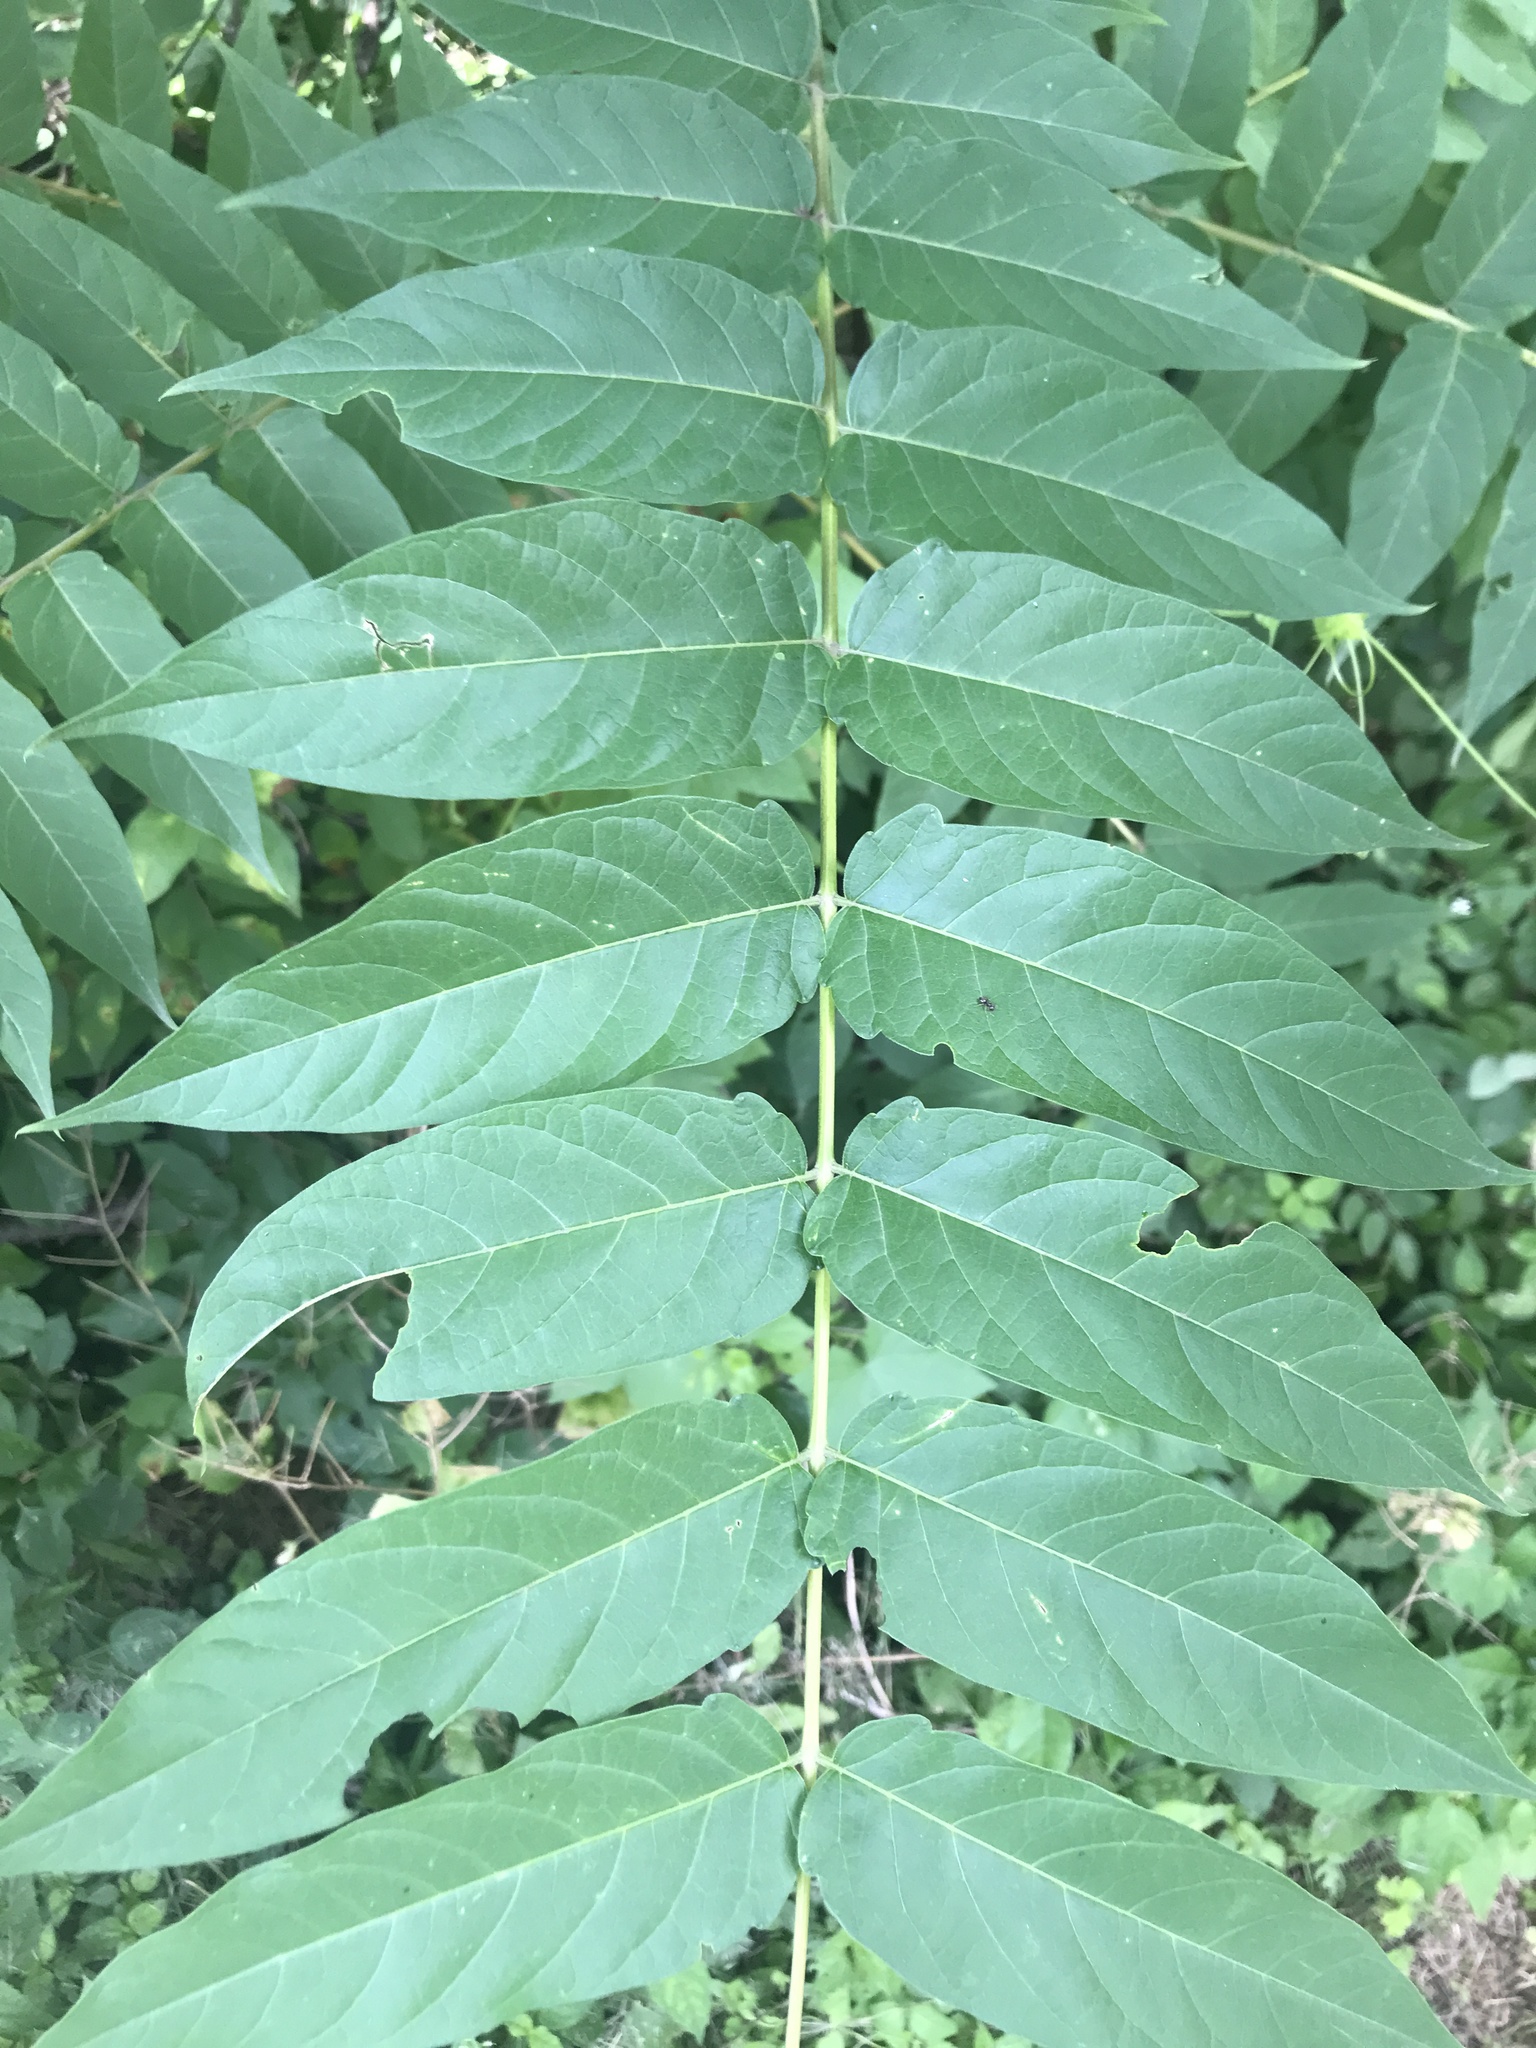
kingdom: Plantae
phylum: Tracheophyta
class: Magnoliopsida
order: Sapindales
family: Simaroubaceae
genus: Ailanthus
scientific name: Ailanthus altissima
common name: Tree-of-heaven
